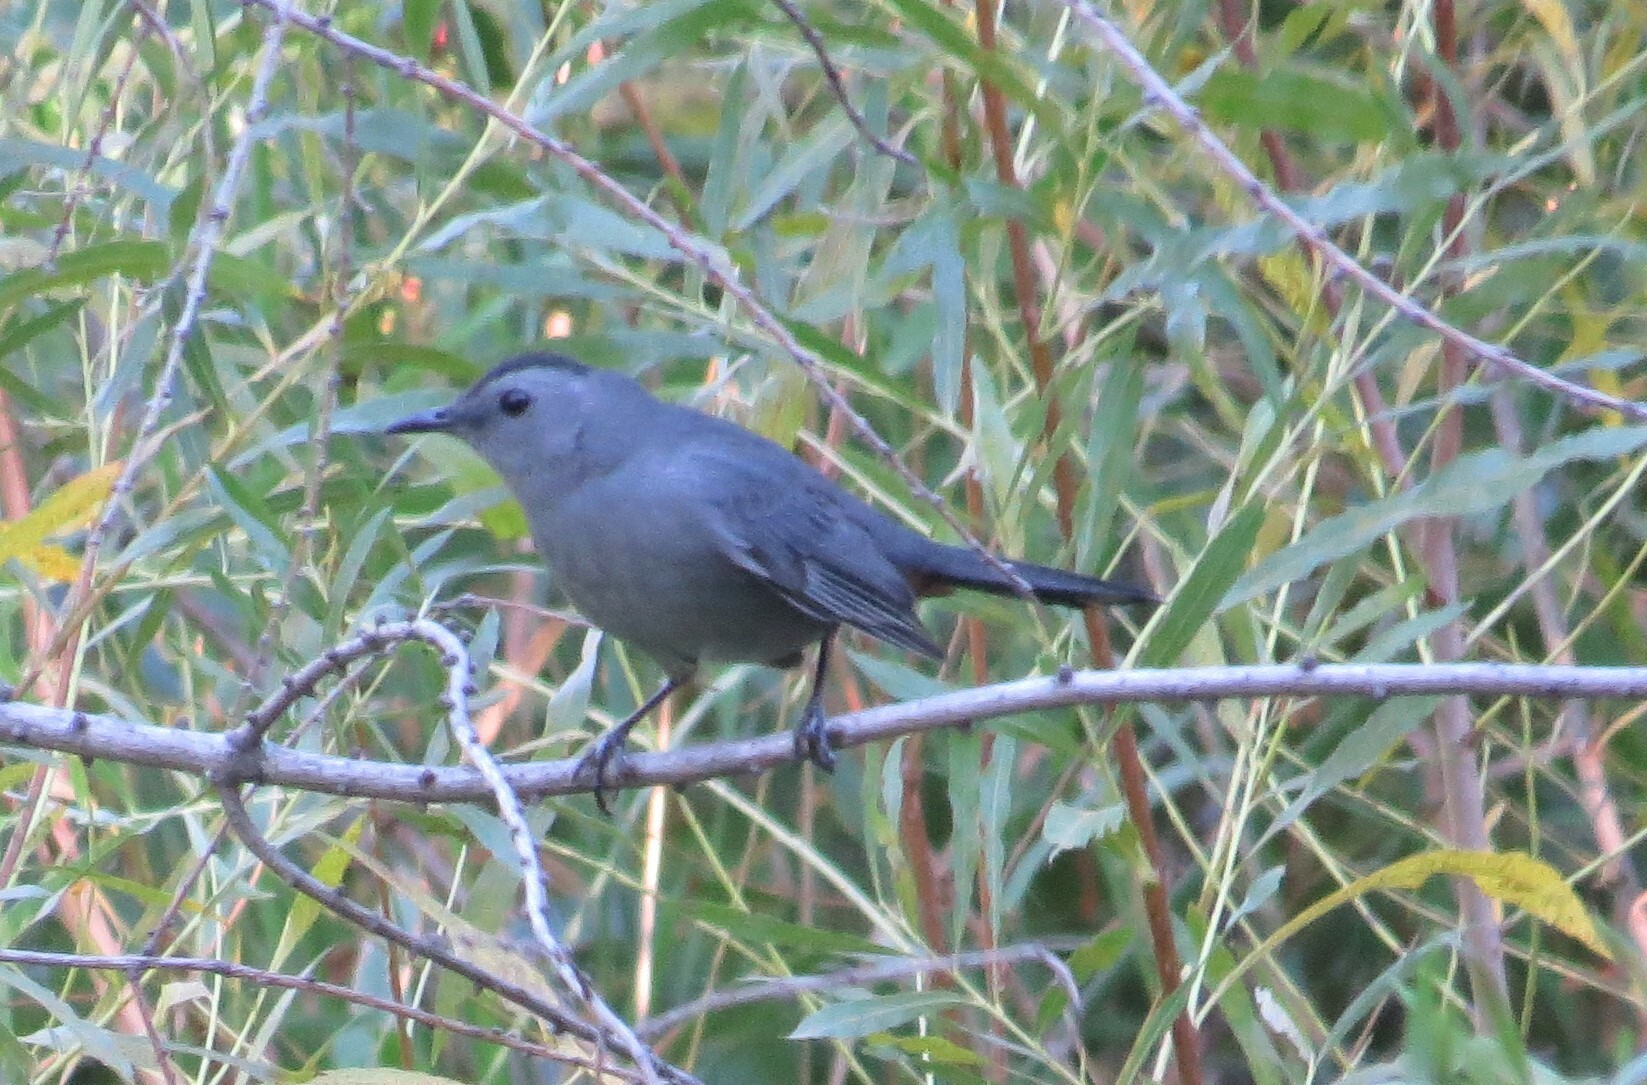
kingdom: Animalia
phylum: Chordata
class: Aves
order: Passeriformes
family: Mimidae
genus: Dumetella
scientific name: Dumetella carolinensis
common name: Gray catbird
